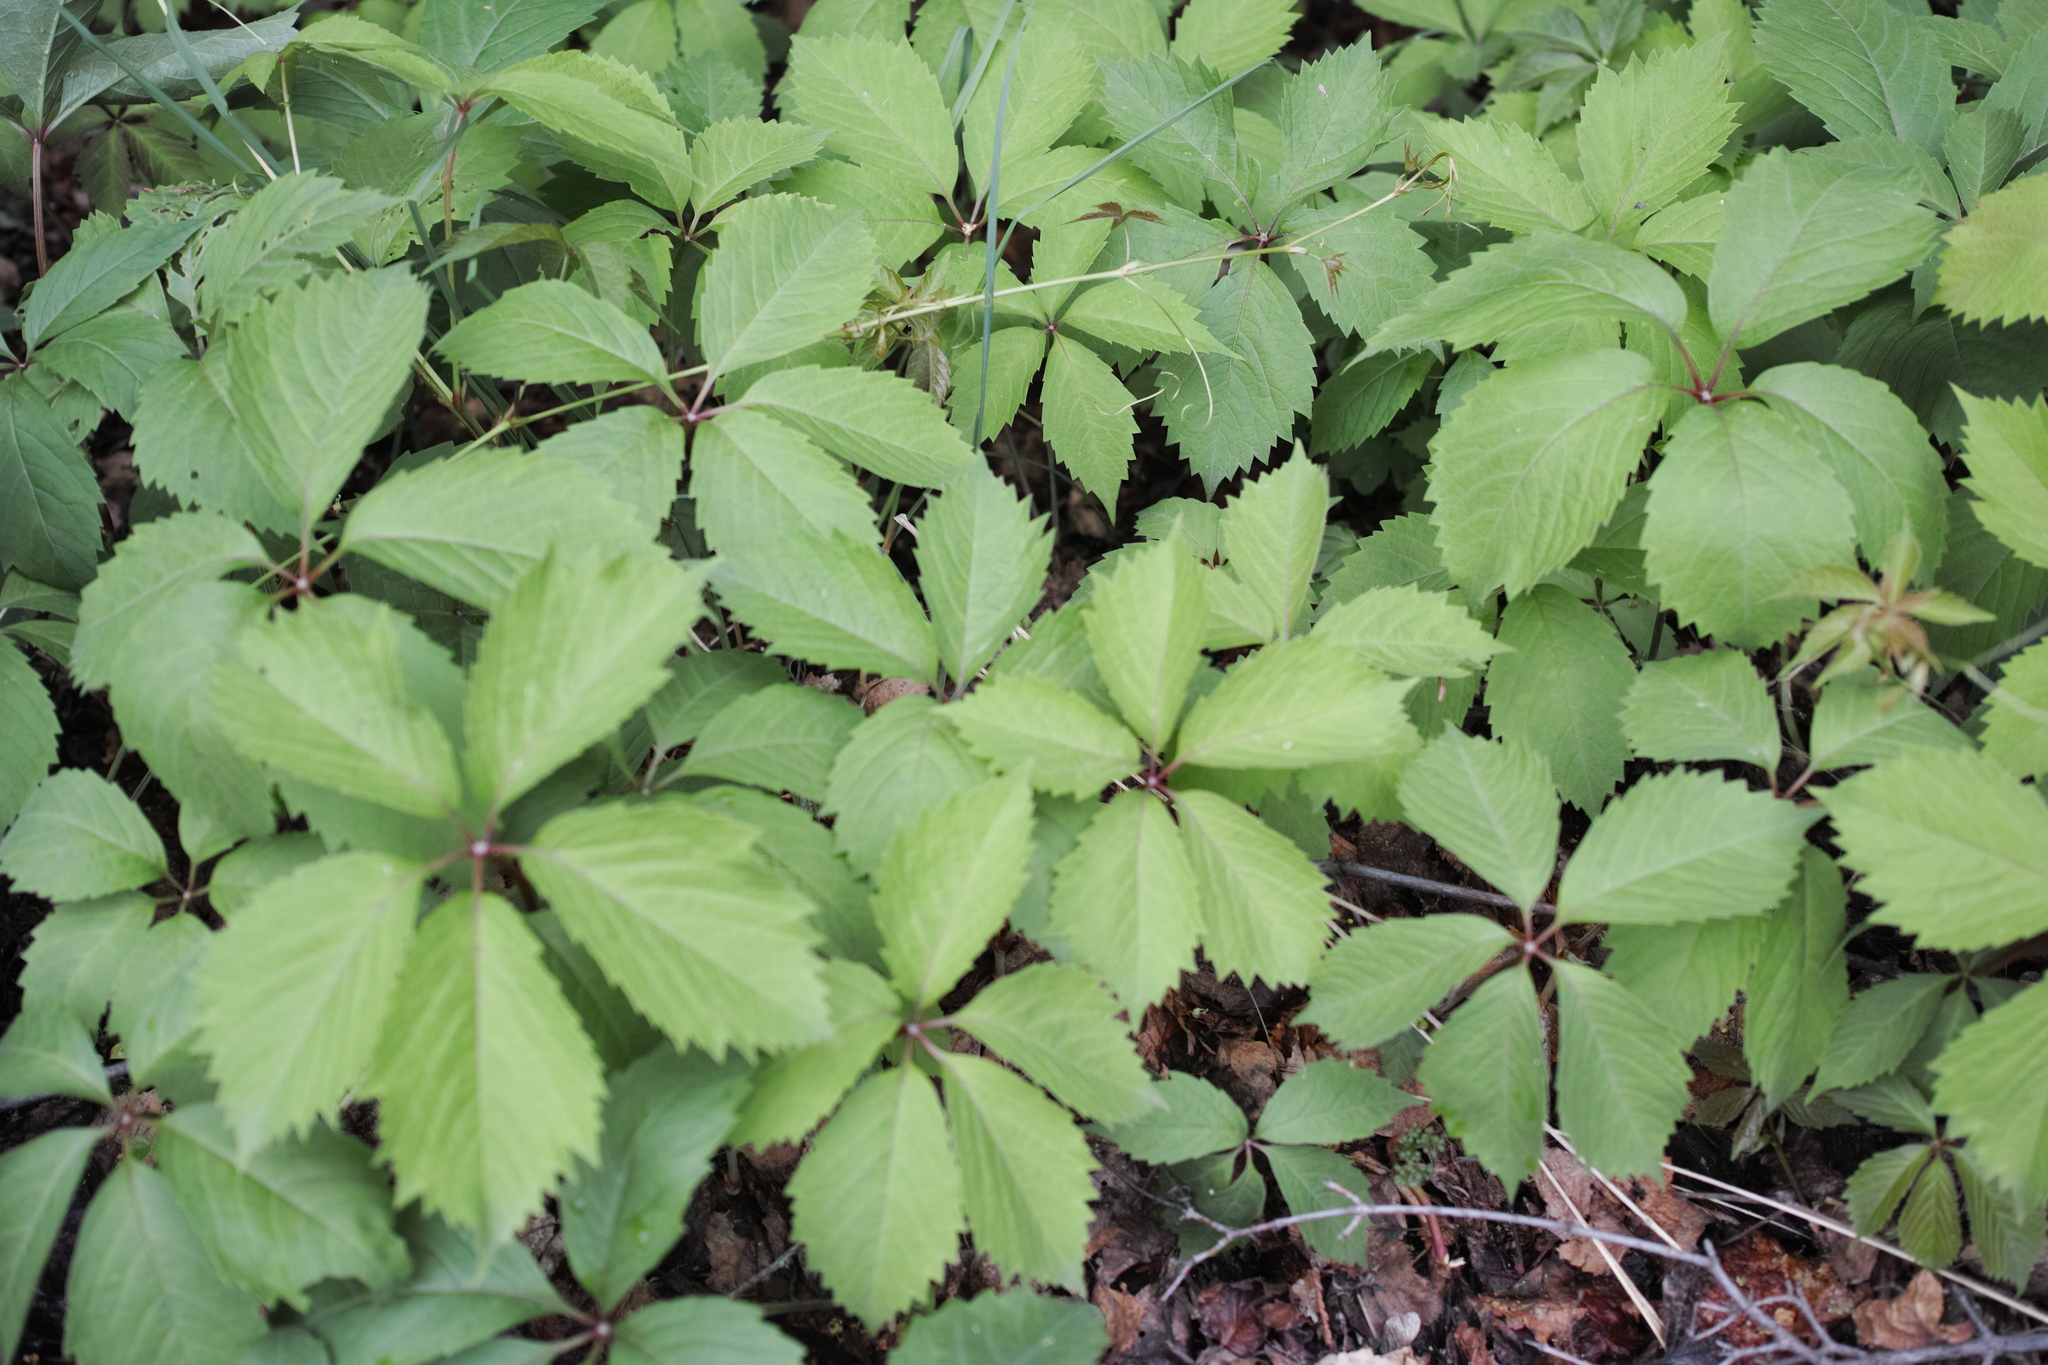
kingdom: Plantae
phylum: Tracheophyta
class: Magnoliopsida
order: Vitales
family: Vitaceae
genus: Parthenocissus
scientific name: Parthenocissus inserta
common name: False virginia-creeper
